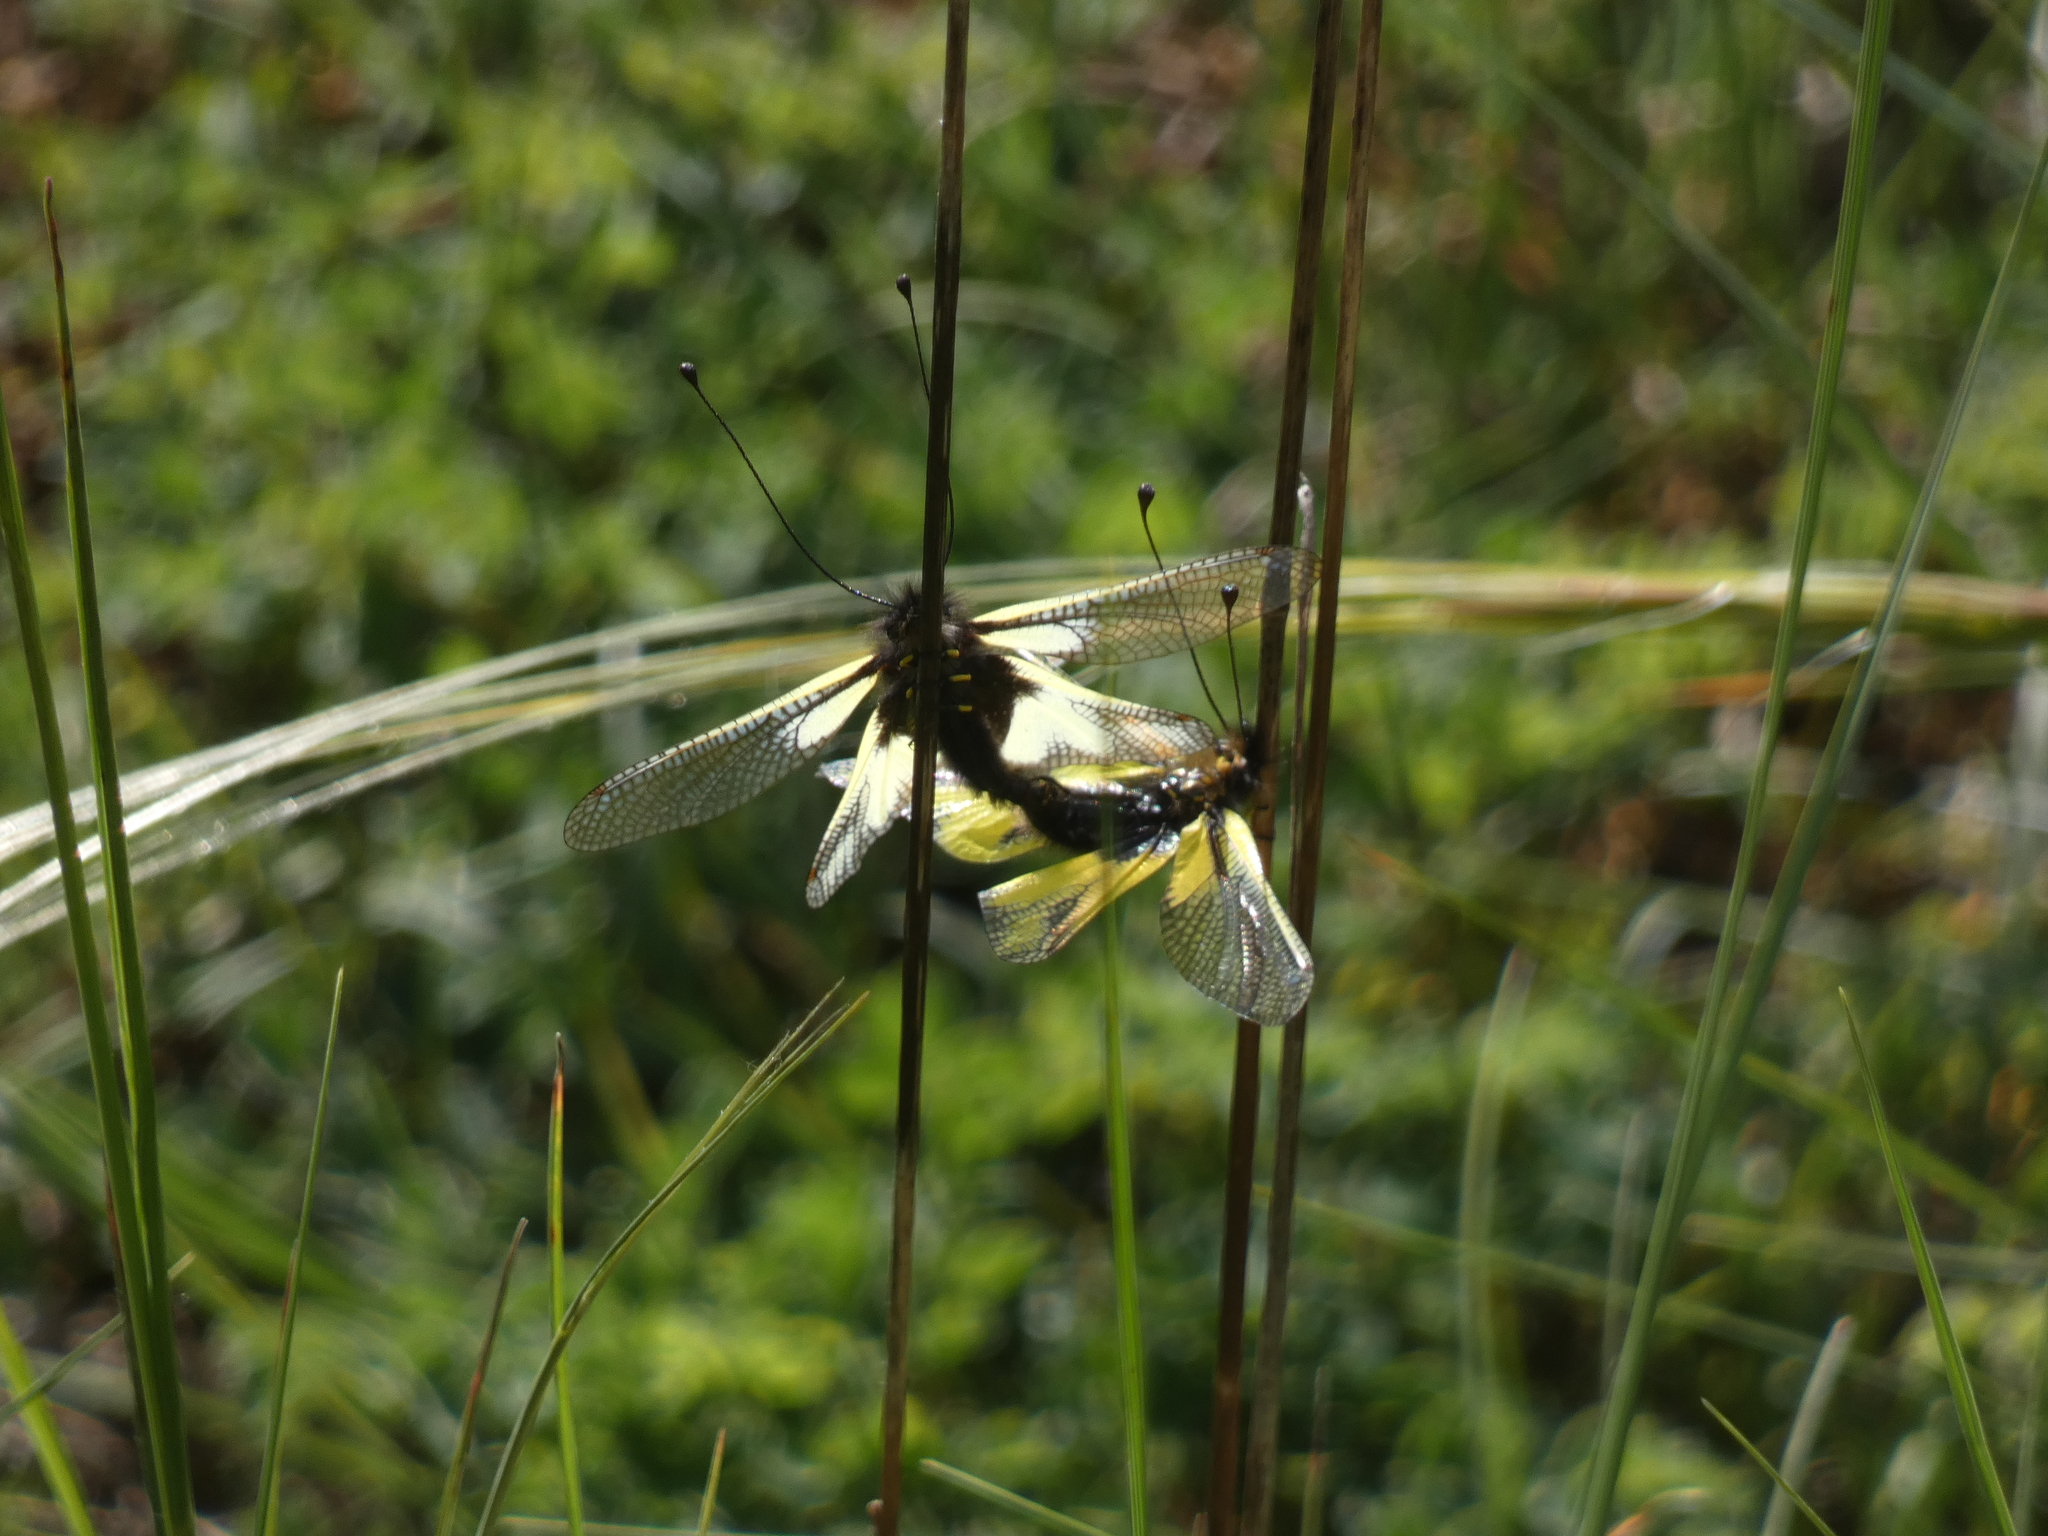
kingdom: Animalia
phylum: Arthropoda
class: Insecta
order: Neuroptera
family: Ascalaphidae
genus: Libelloides
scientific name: Libelloides coccajus
